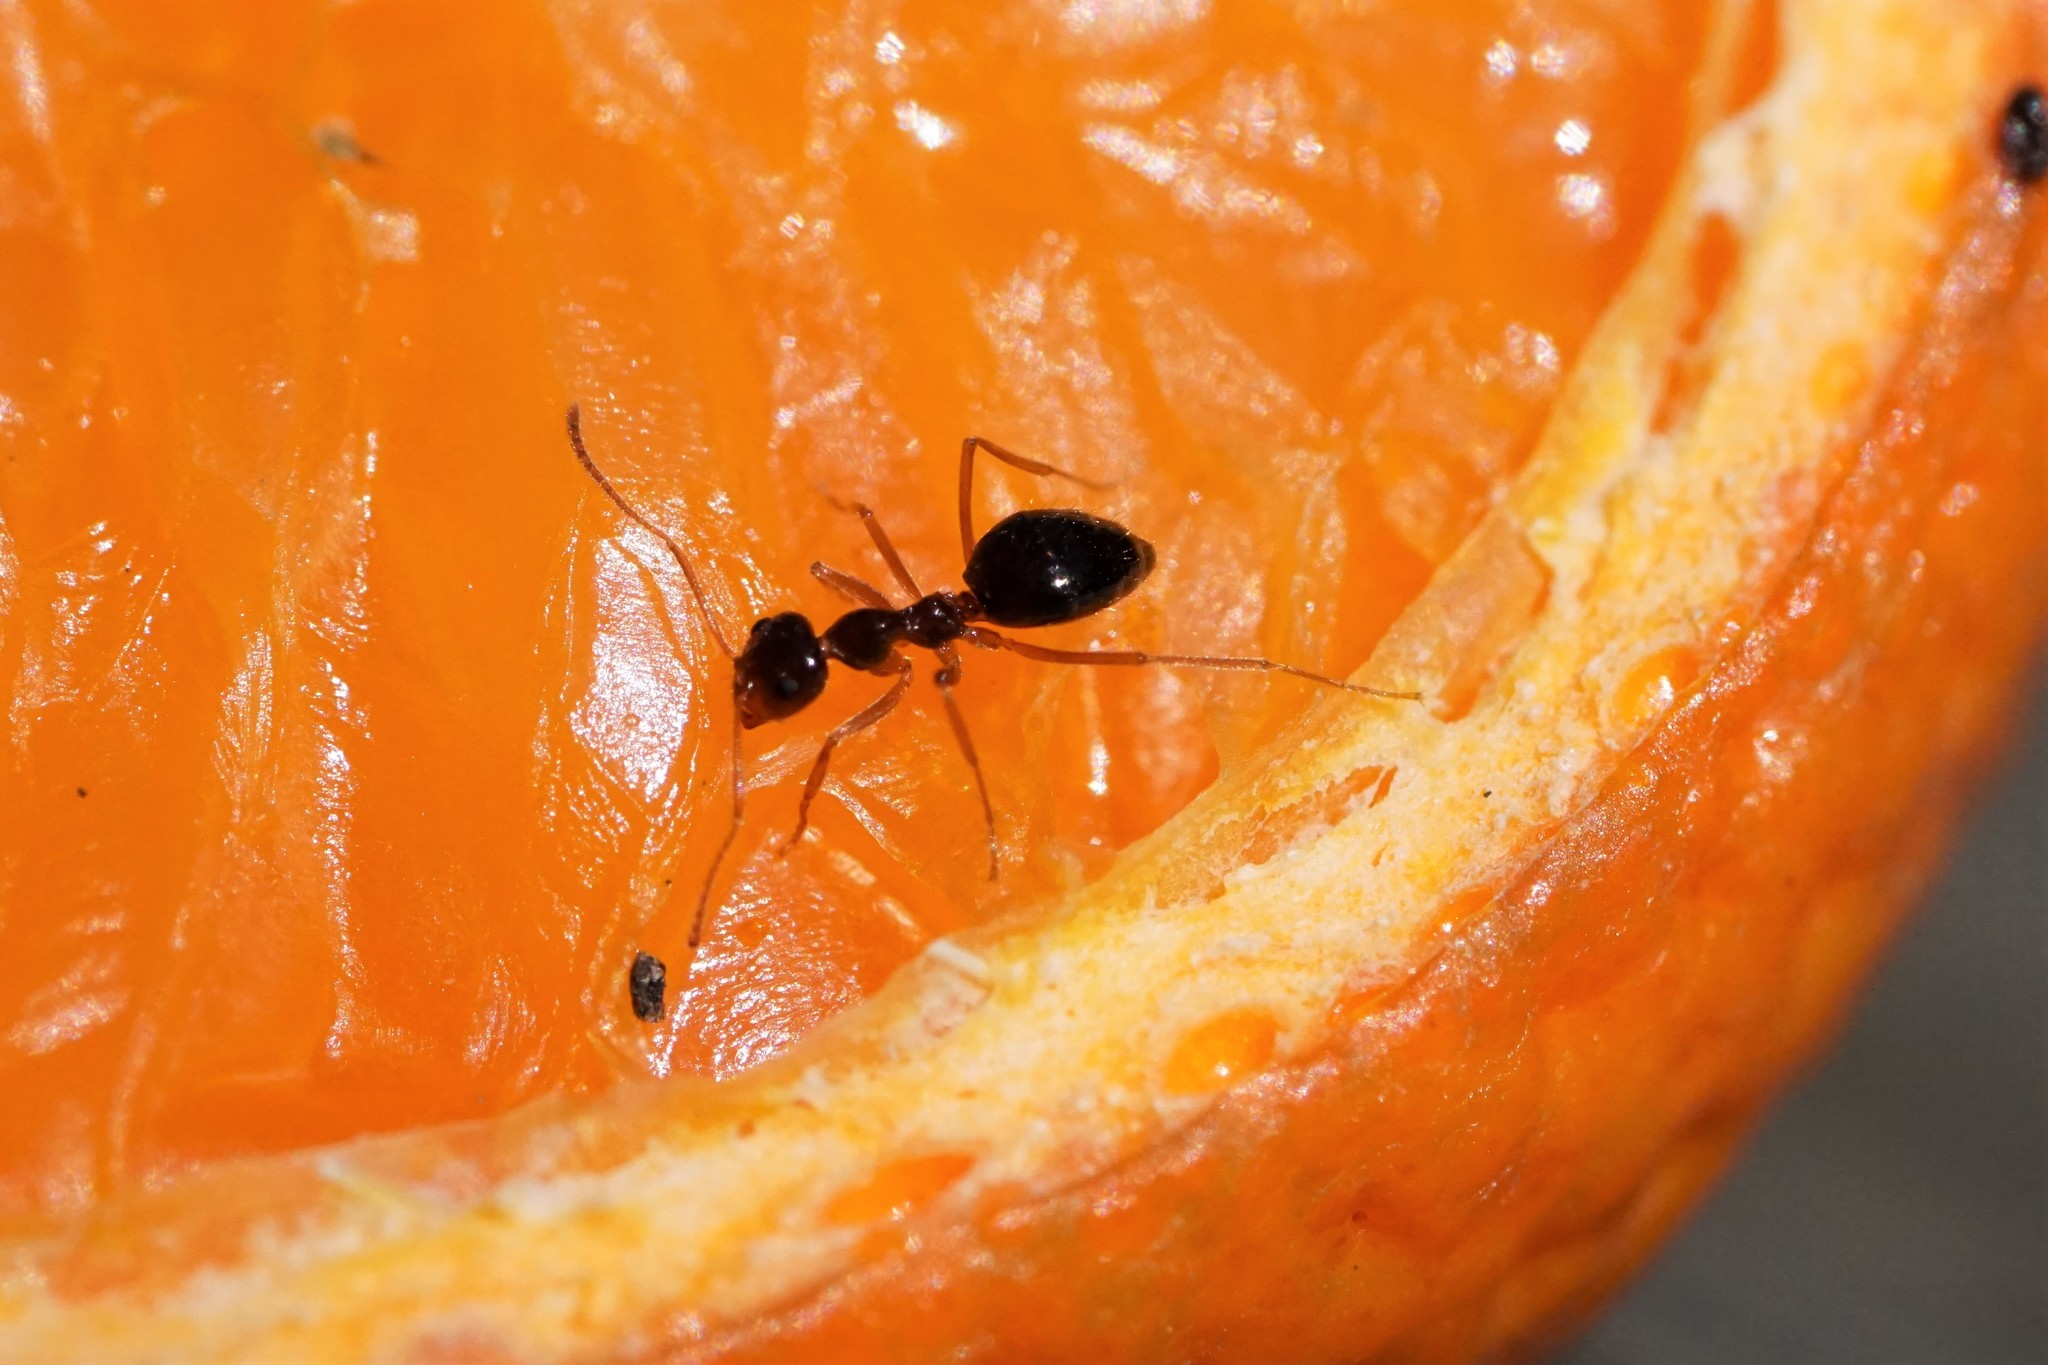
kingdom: Animalia
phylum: Arthropoda
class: Insecta
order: Hymenoptera
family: Formicidae
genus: Prenolepis
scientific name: Prenolepis imparis
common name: Small honey ant
